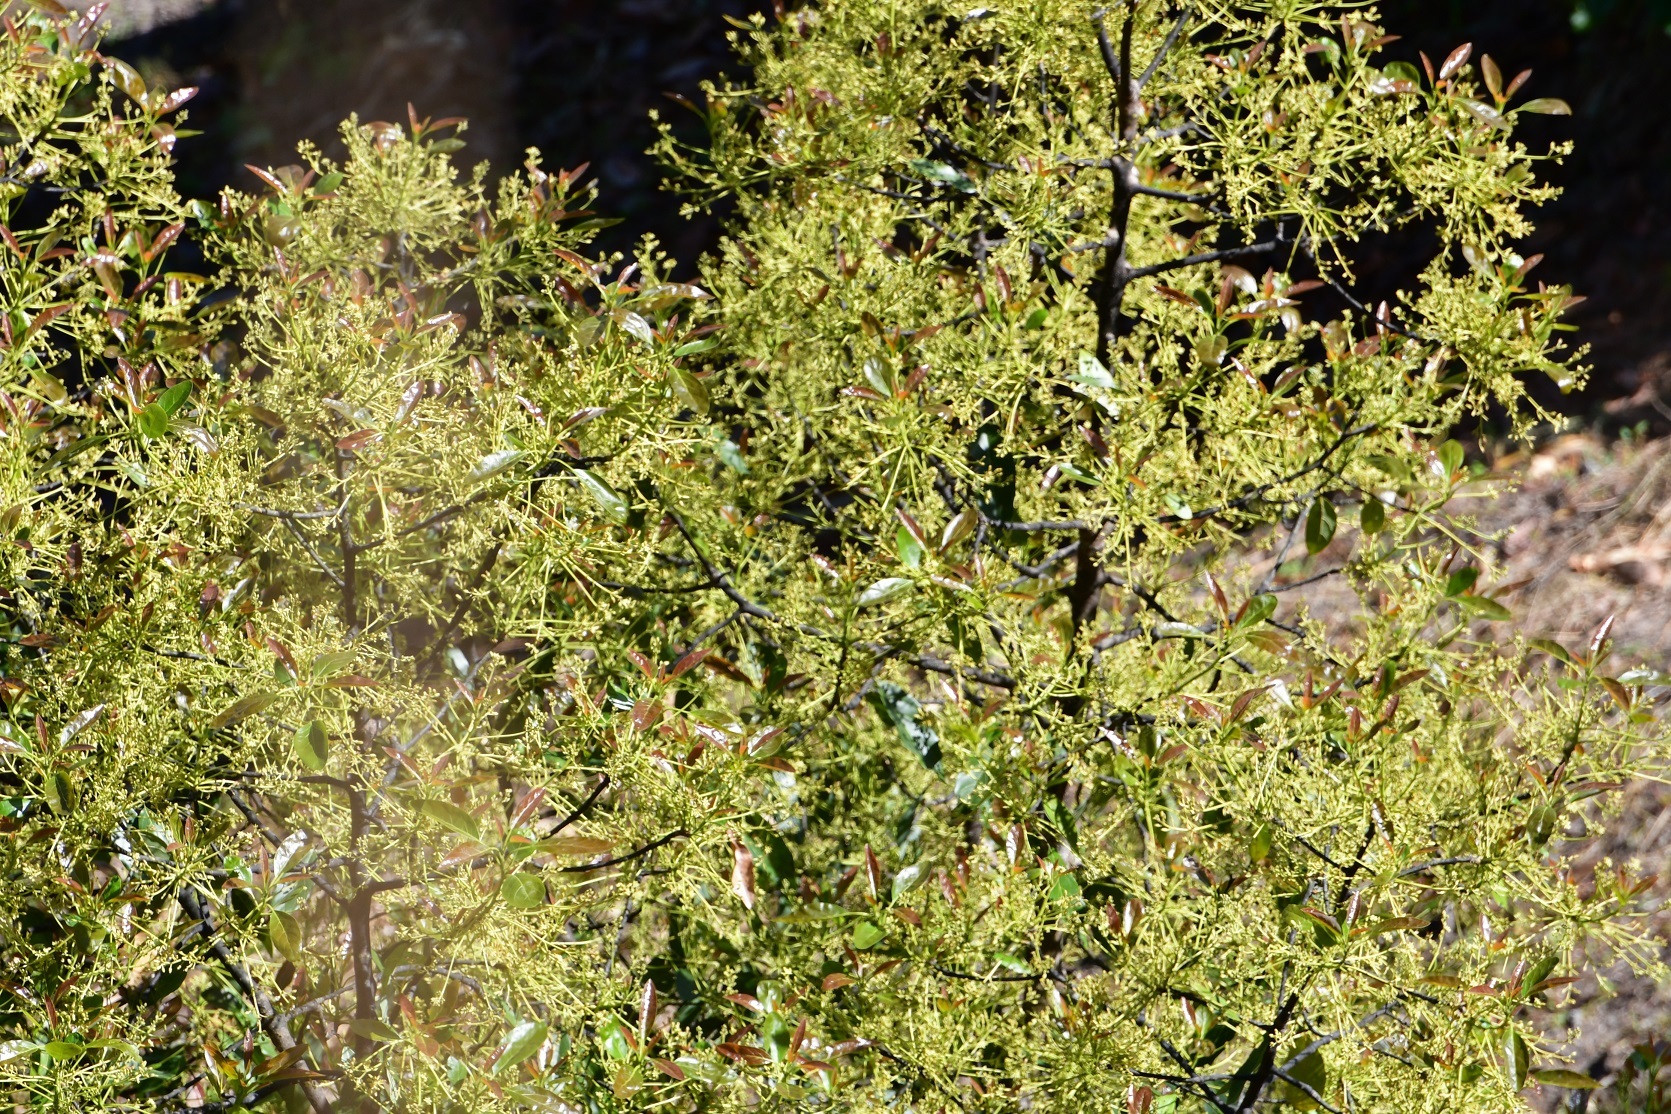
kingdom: Plantae
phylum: Tracheophyta
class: Magnoliopsida
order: Laurales
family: Lauraceae
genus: Persea
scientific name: Persea americana
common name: Avocado
